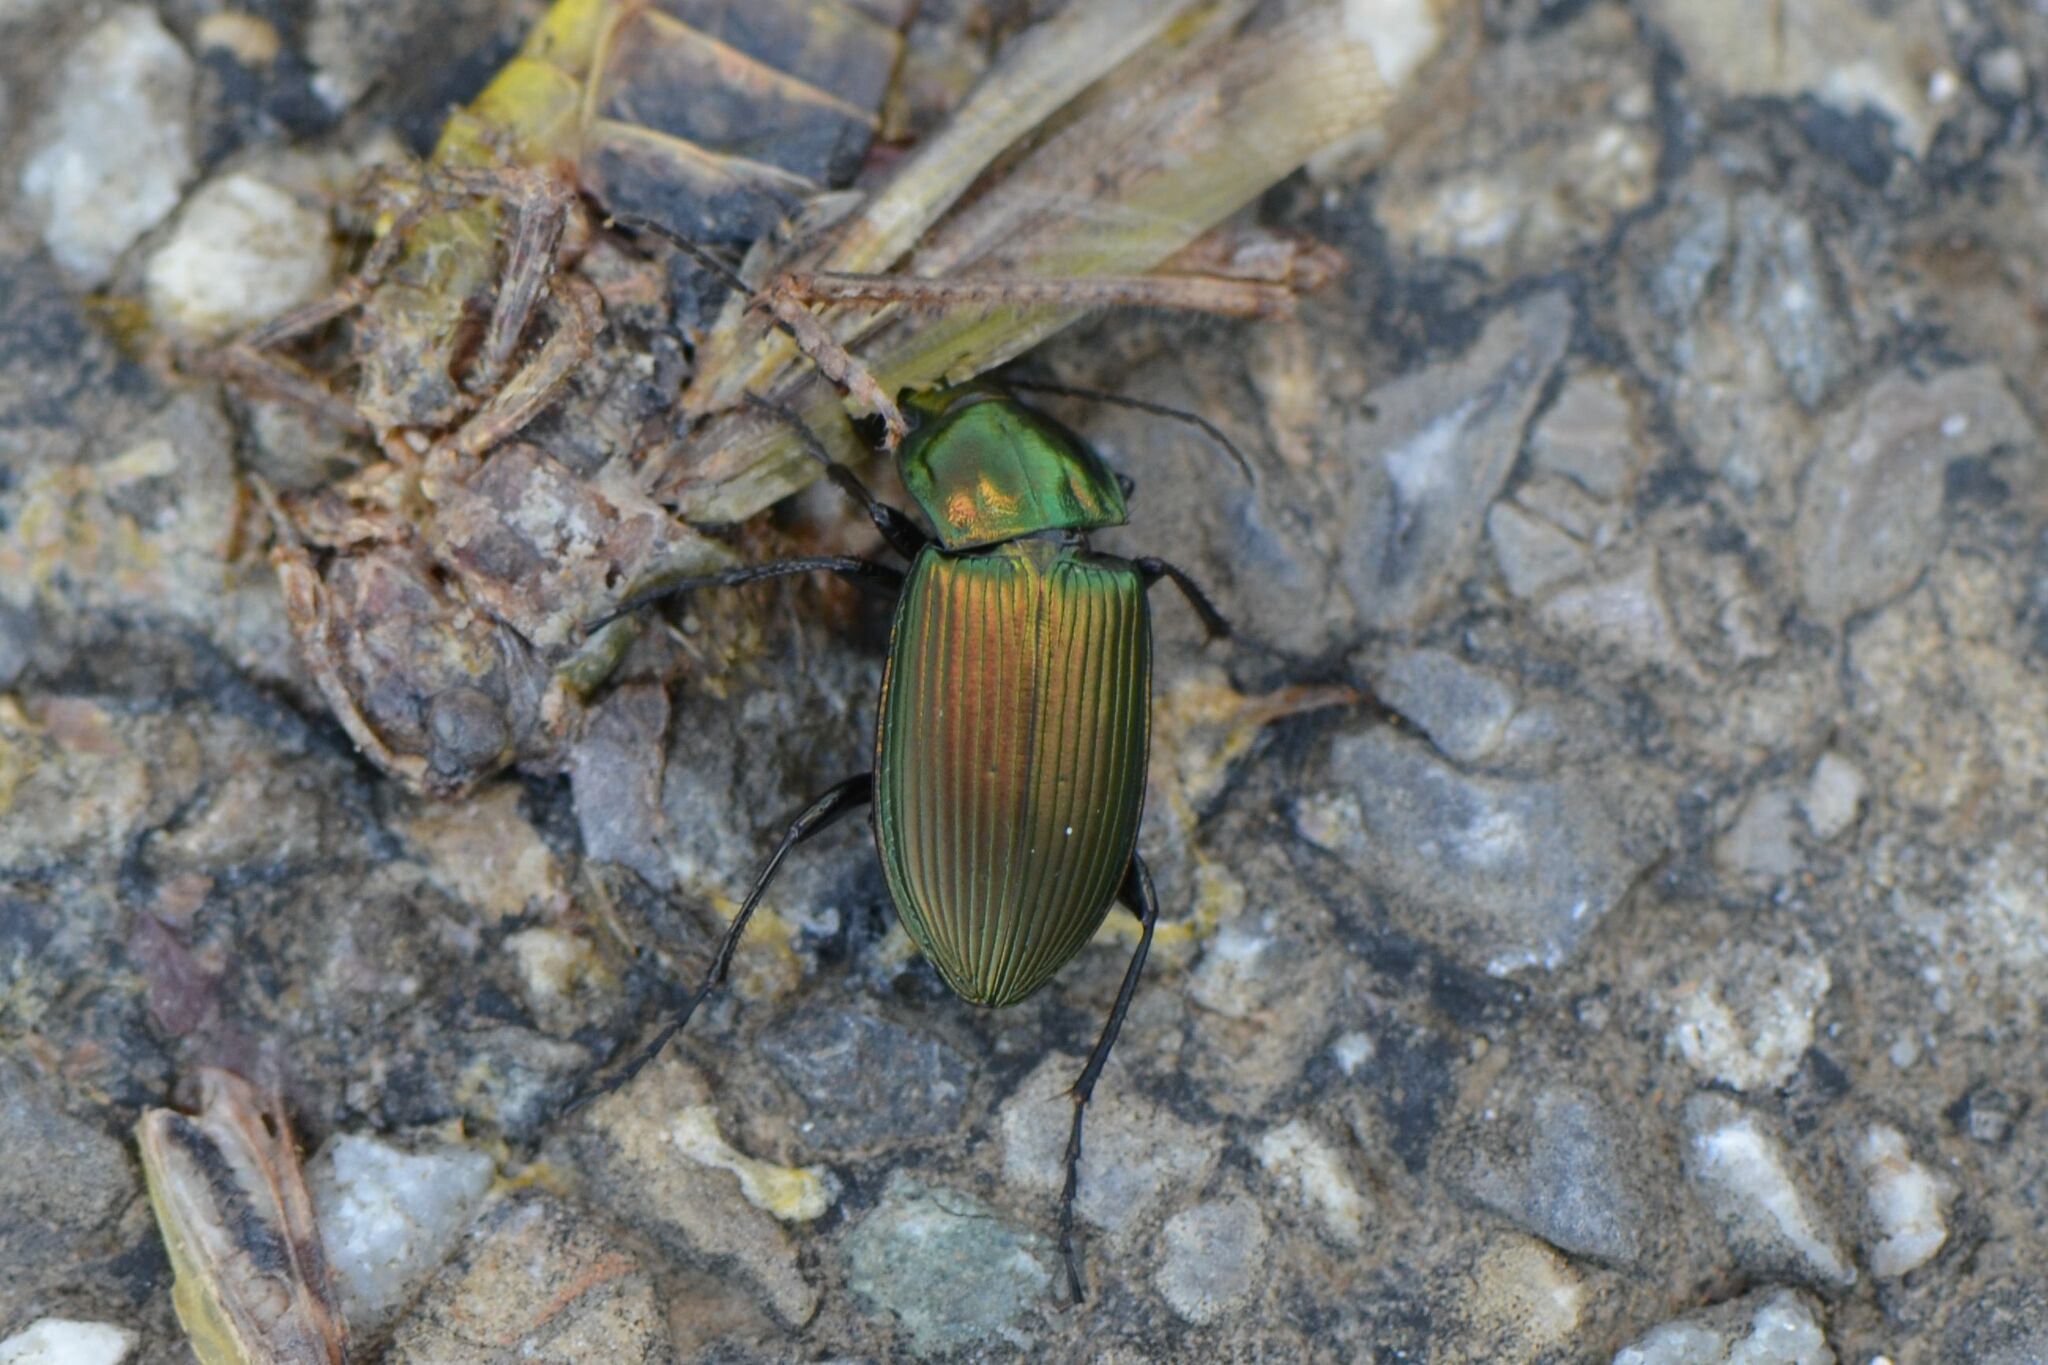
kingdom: Animalia
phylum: Arthropoda
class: Insecta
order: Coleoptera
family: Carabidae
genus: Poecilus
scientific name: Poecilus cupreus
